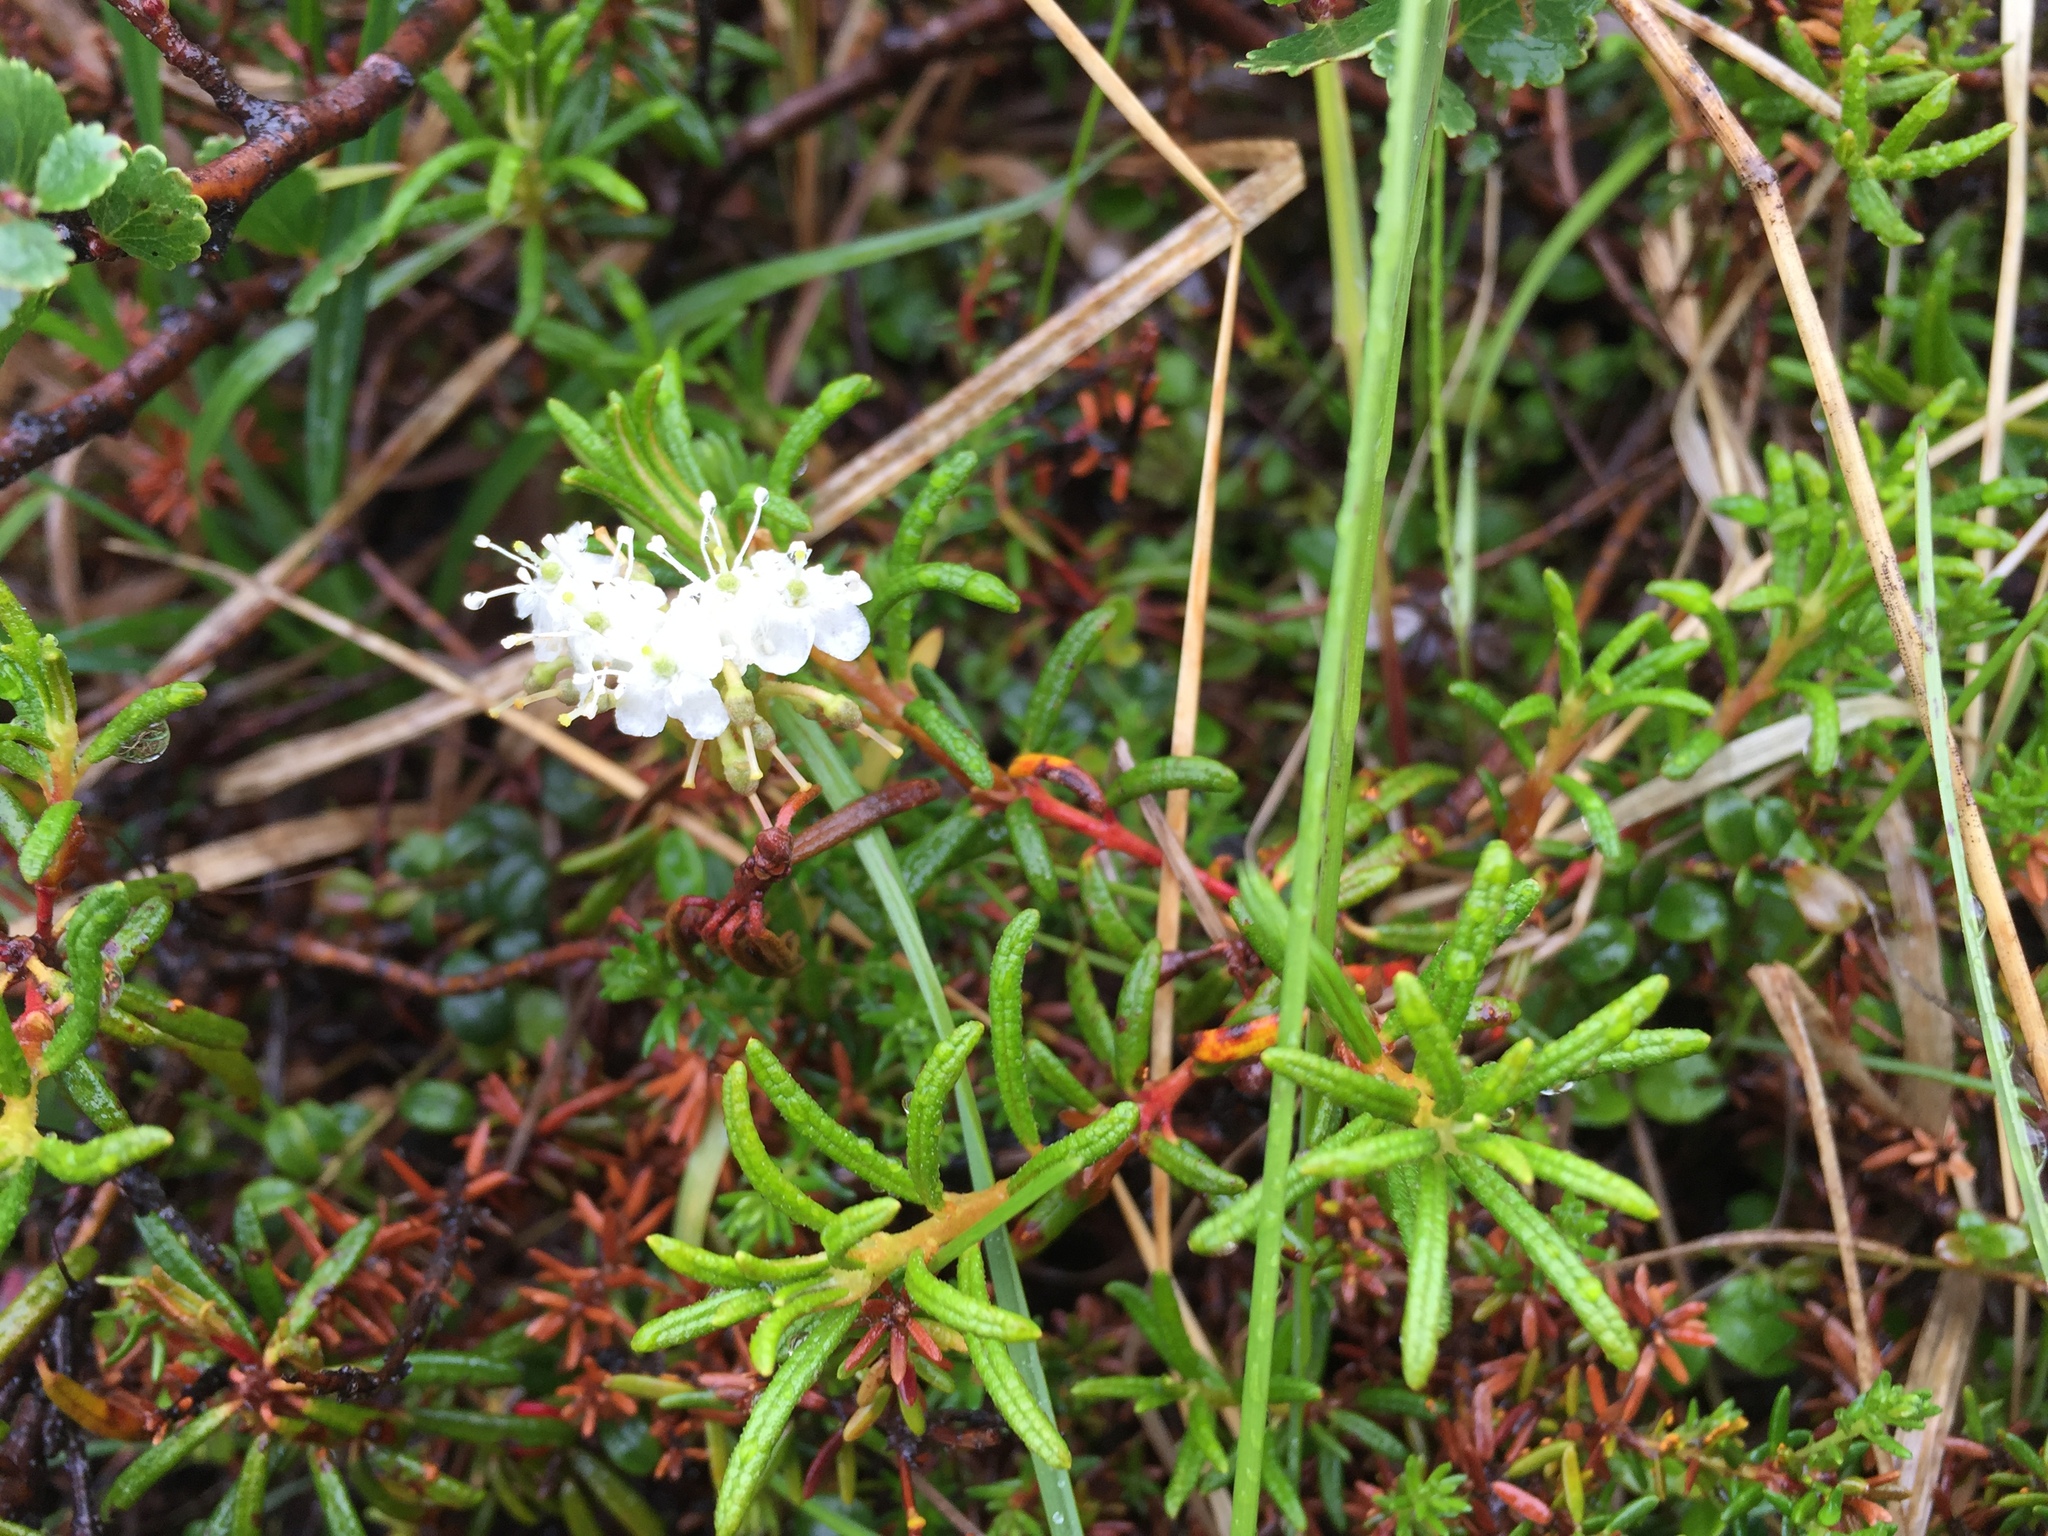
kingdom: Plantae
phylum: Tracheophyta
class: Magnoliopsida
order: Ericales
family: Ericaceae
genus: Rhododendron
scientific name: Rhododendron tomentosum
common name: Marsh labrador tea
